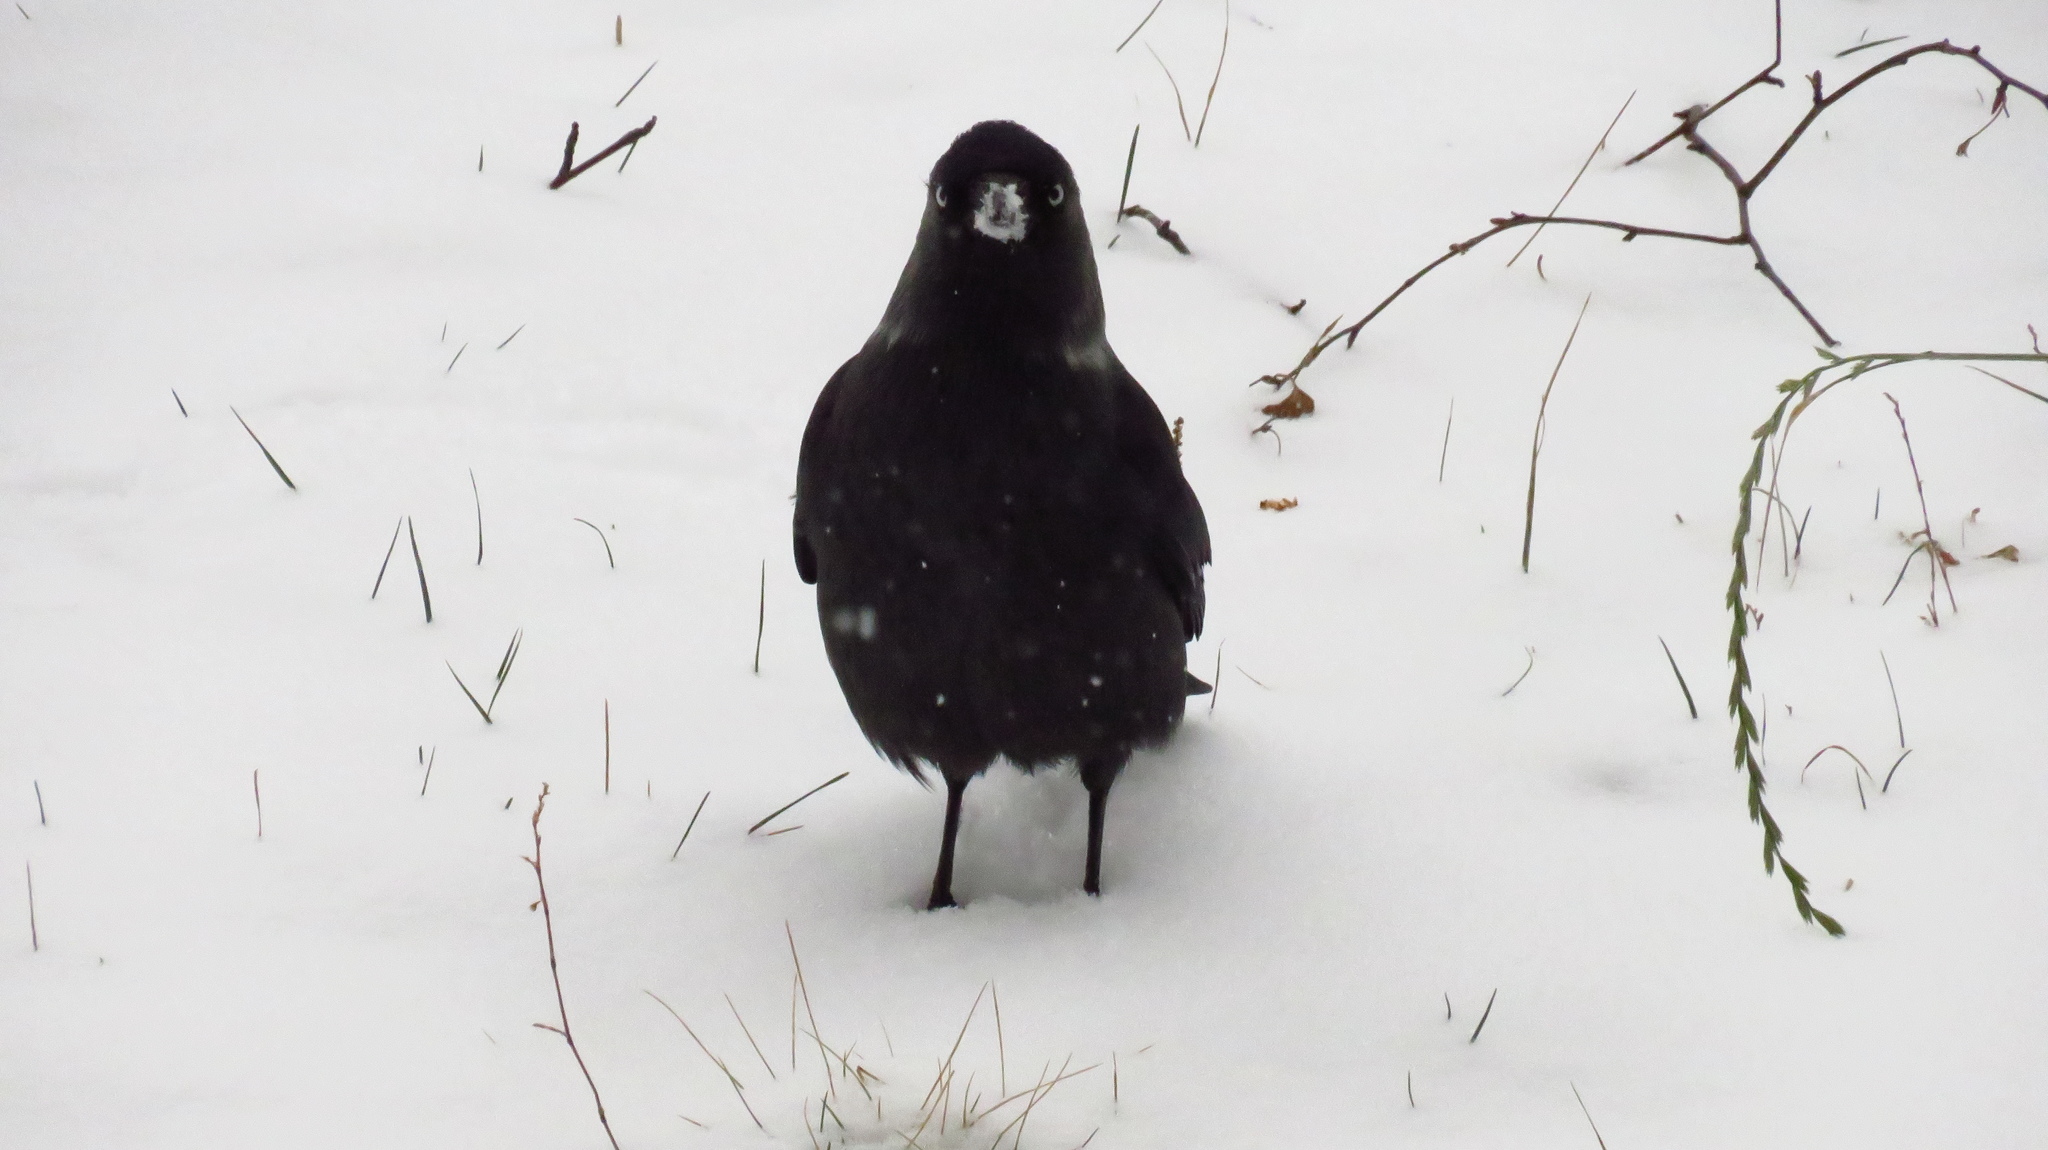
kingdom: Animalia
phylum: Chordata
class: Aves
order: Passeriformes
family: Corvidae
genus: Coloeus
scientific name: Coloeus monedula
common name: Western jackdaw
